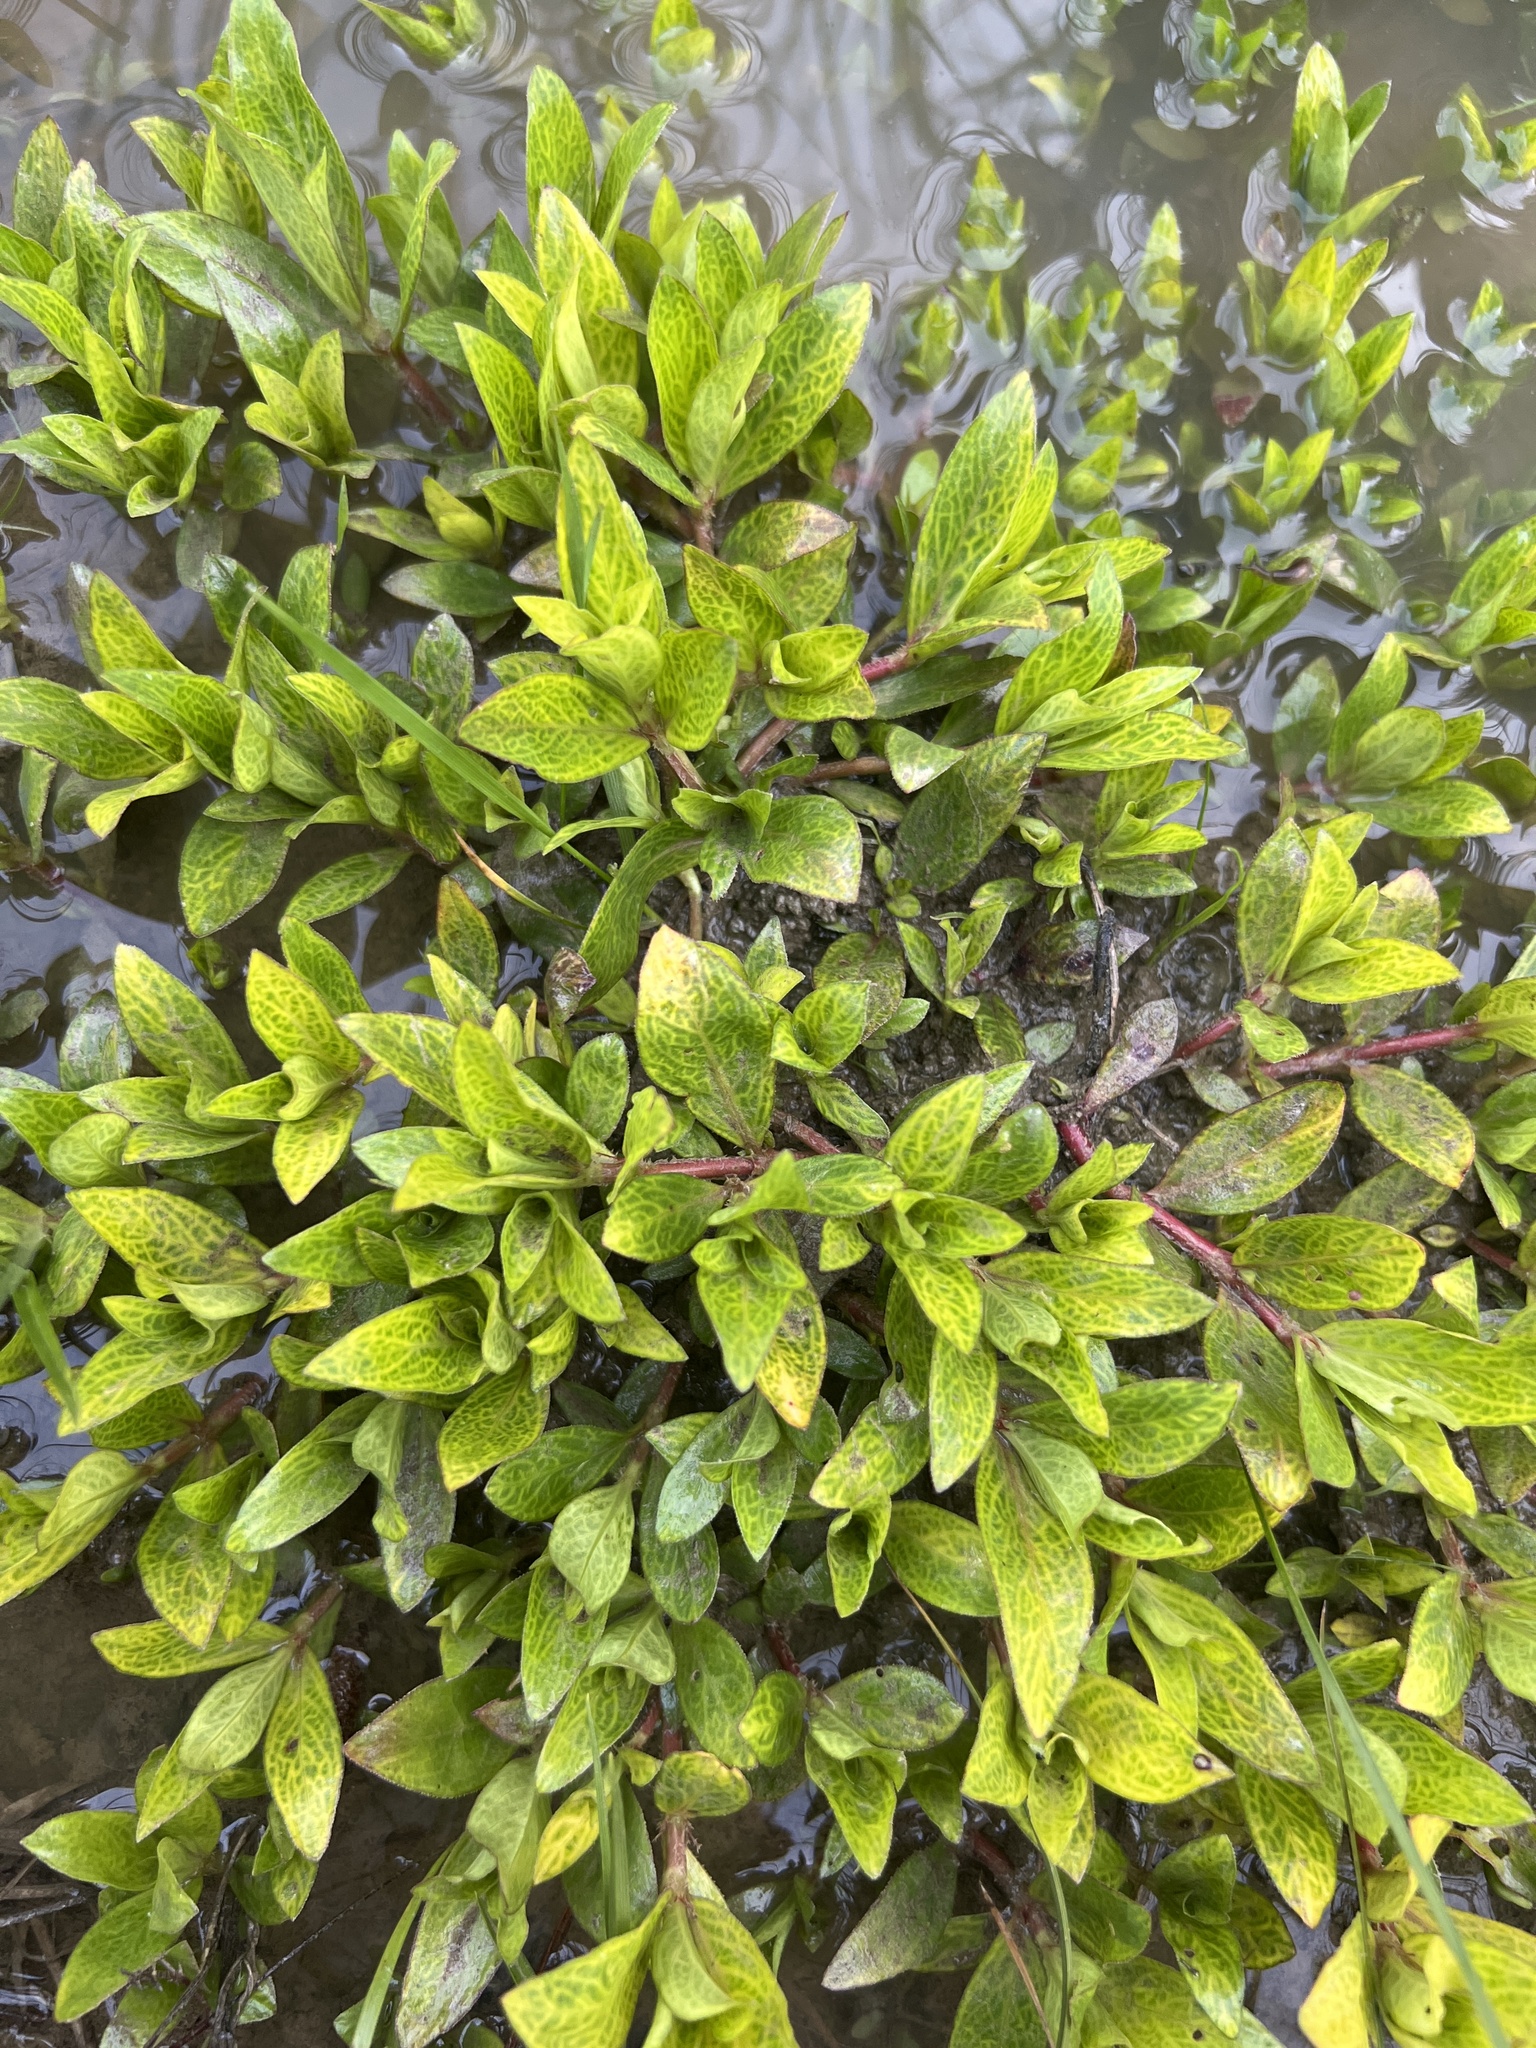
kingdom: Plantae
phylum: Tracheophyta
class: Magnoliopsida
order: Gentianales
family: Rubiaceae
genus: Diodia
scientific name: Diodia virginiana
